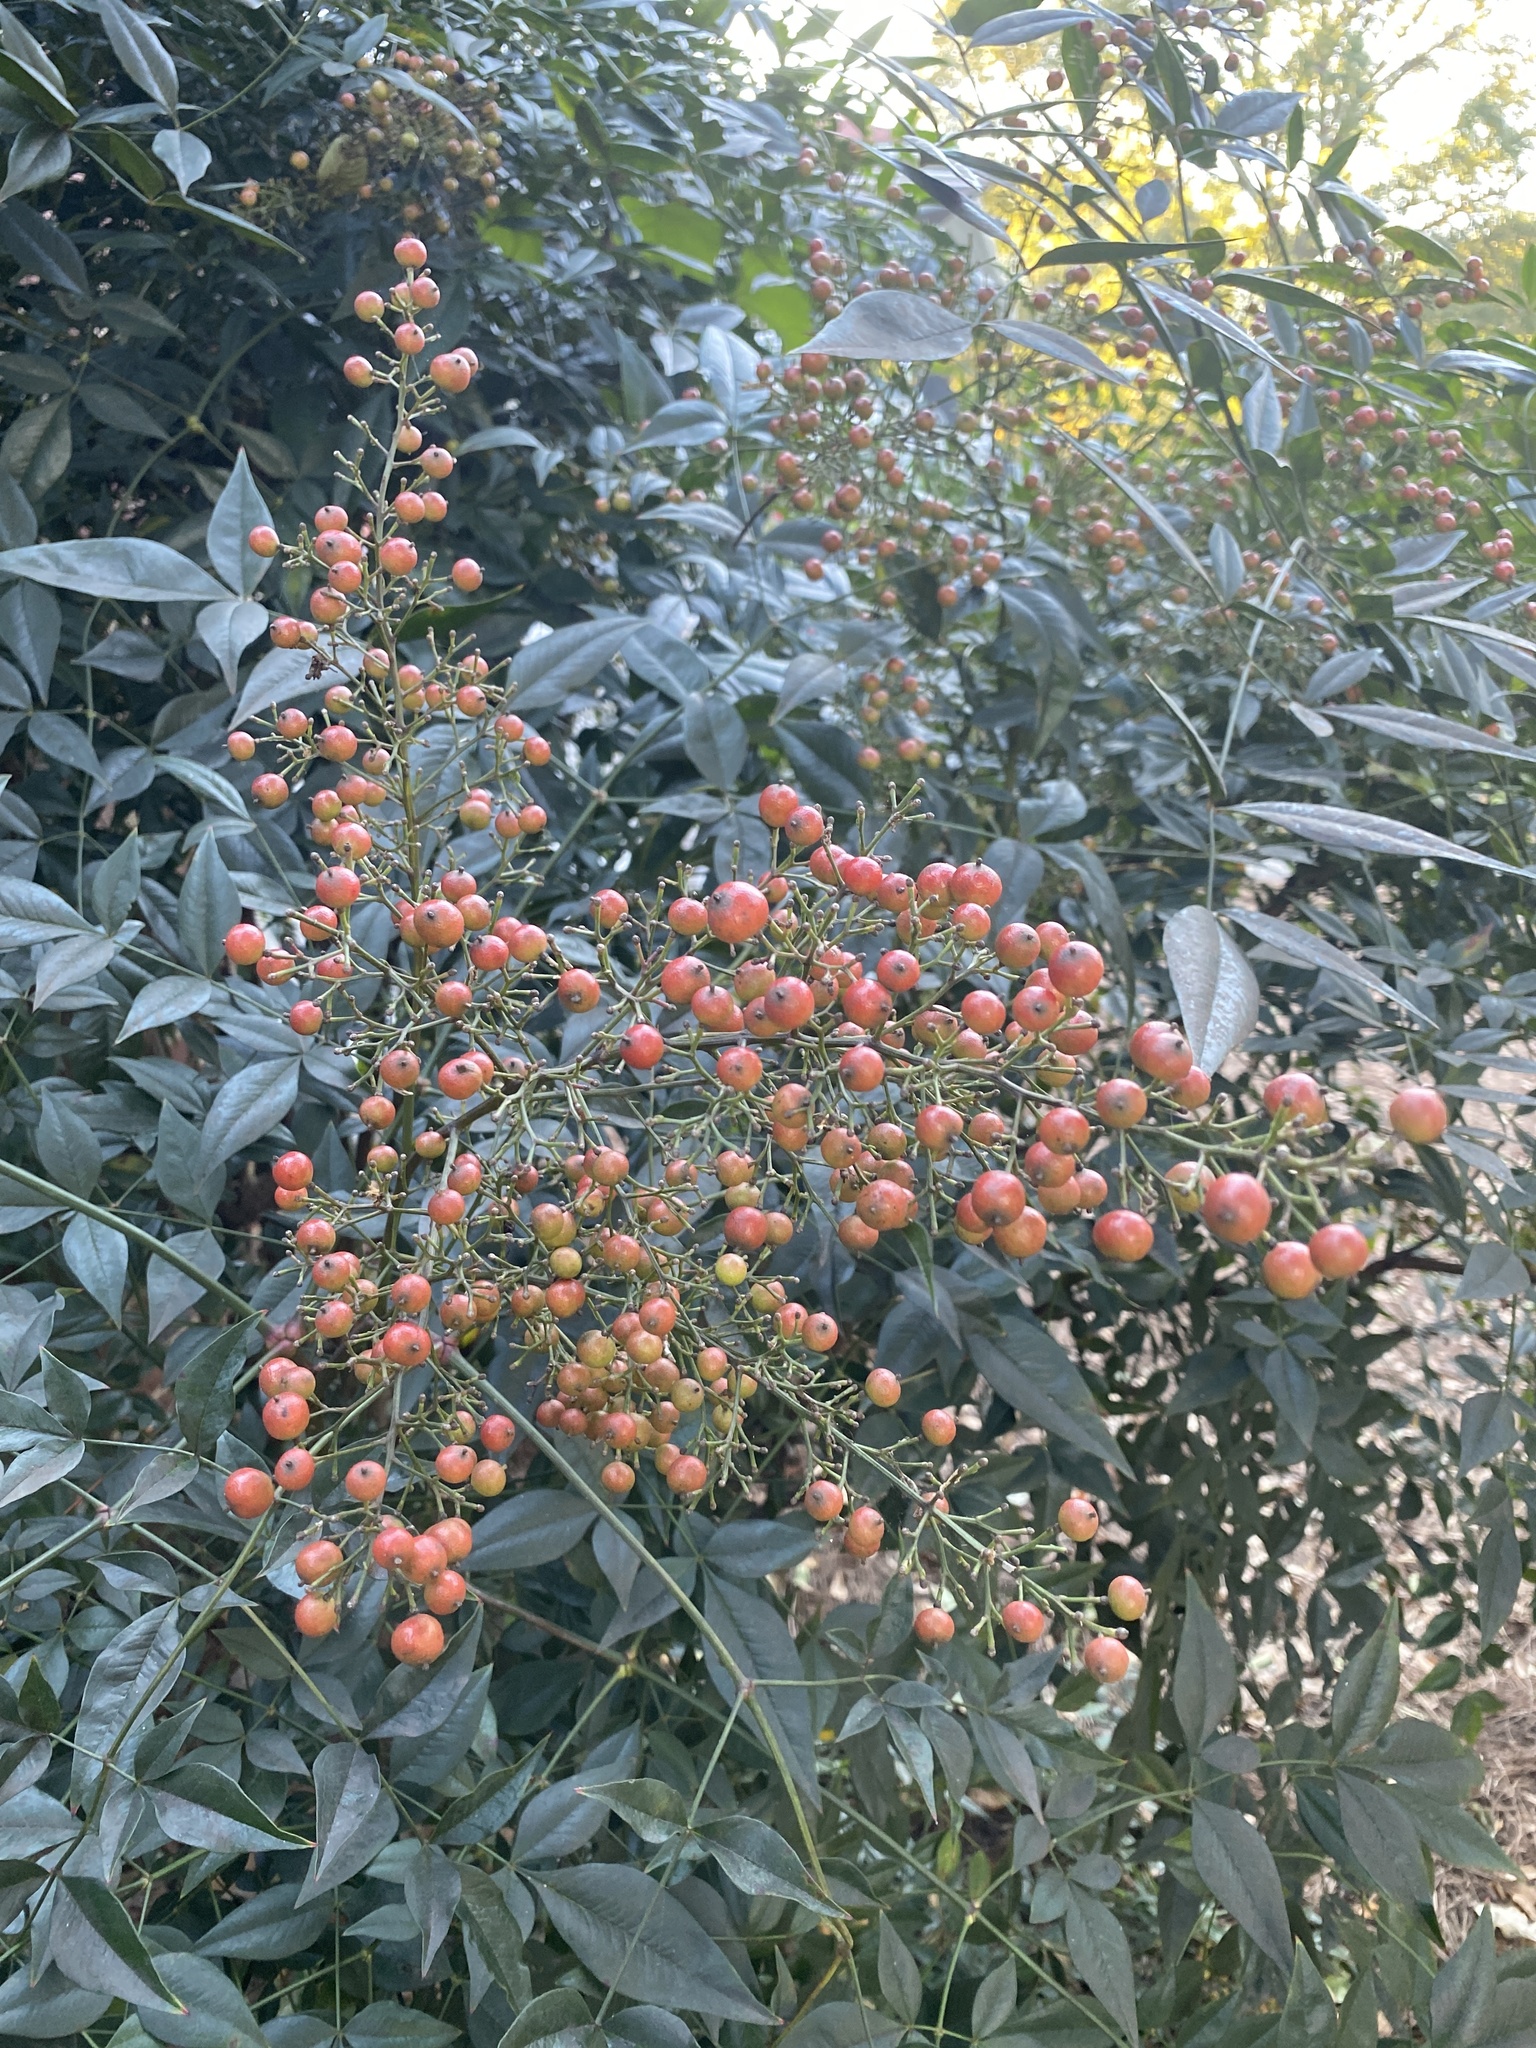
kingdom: Plantae
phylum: Tracheophyta
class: Magnoliopsida
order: Ranunculales
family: Berberidaceae
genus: Nandina
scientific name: Nandina domestica
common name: Sacred bamboo
